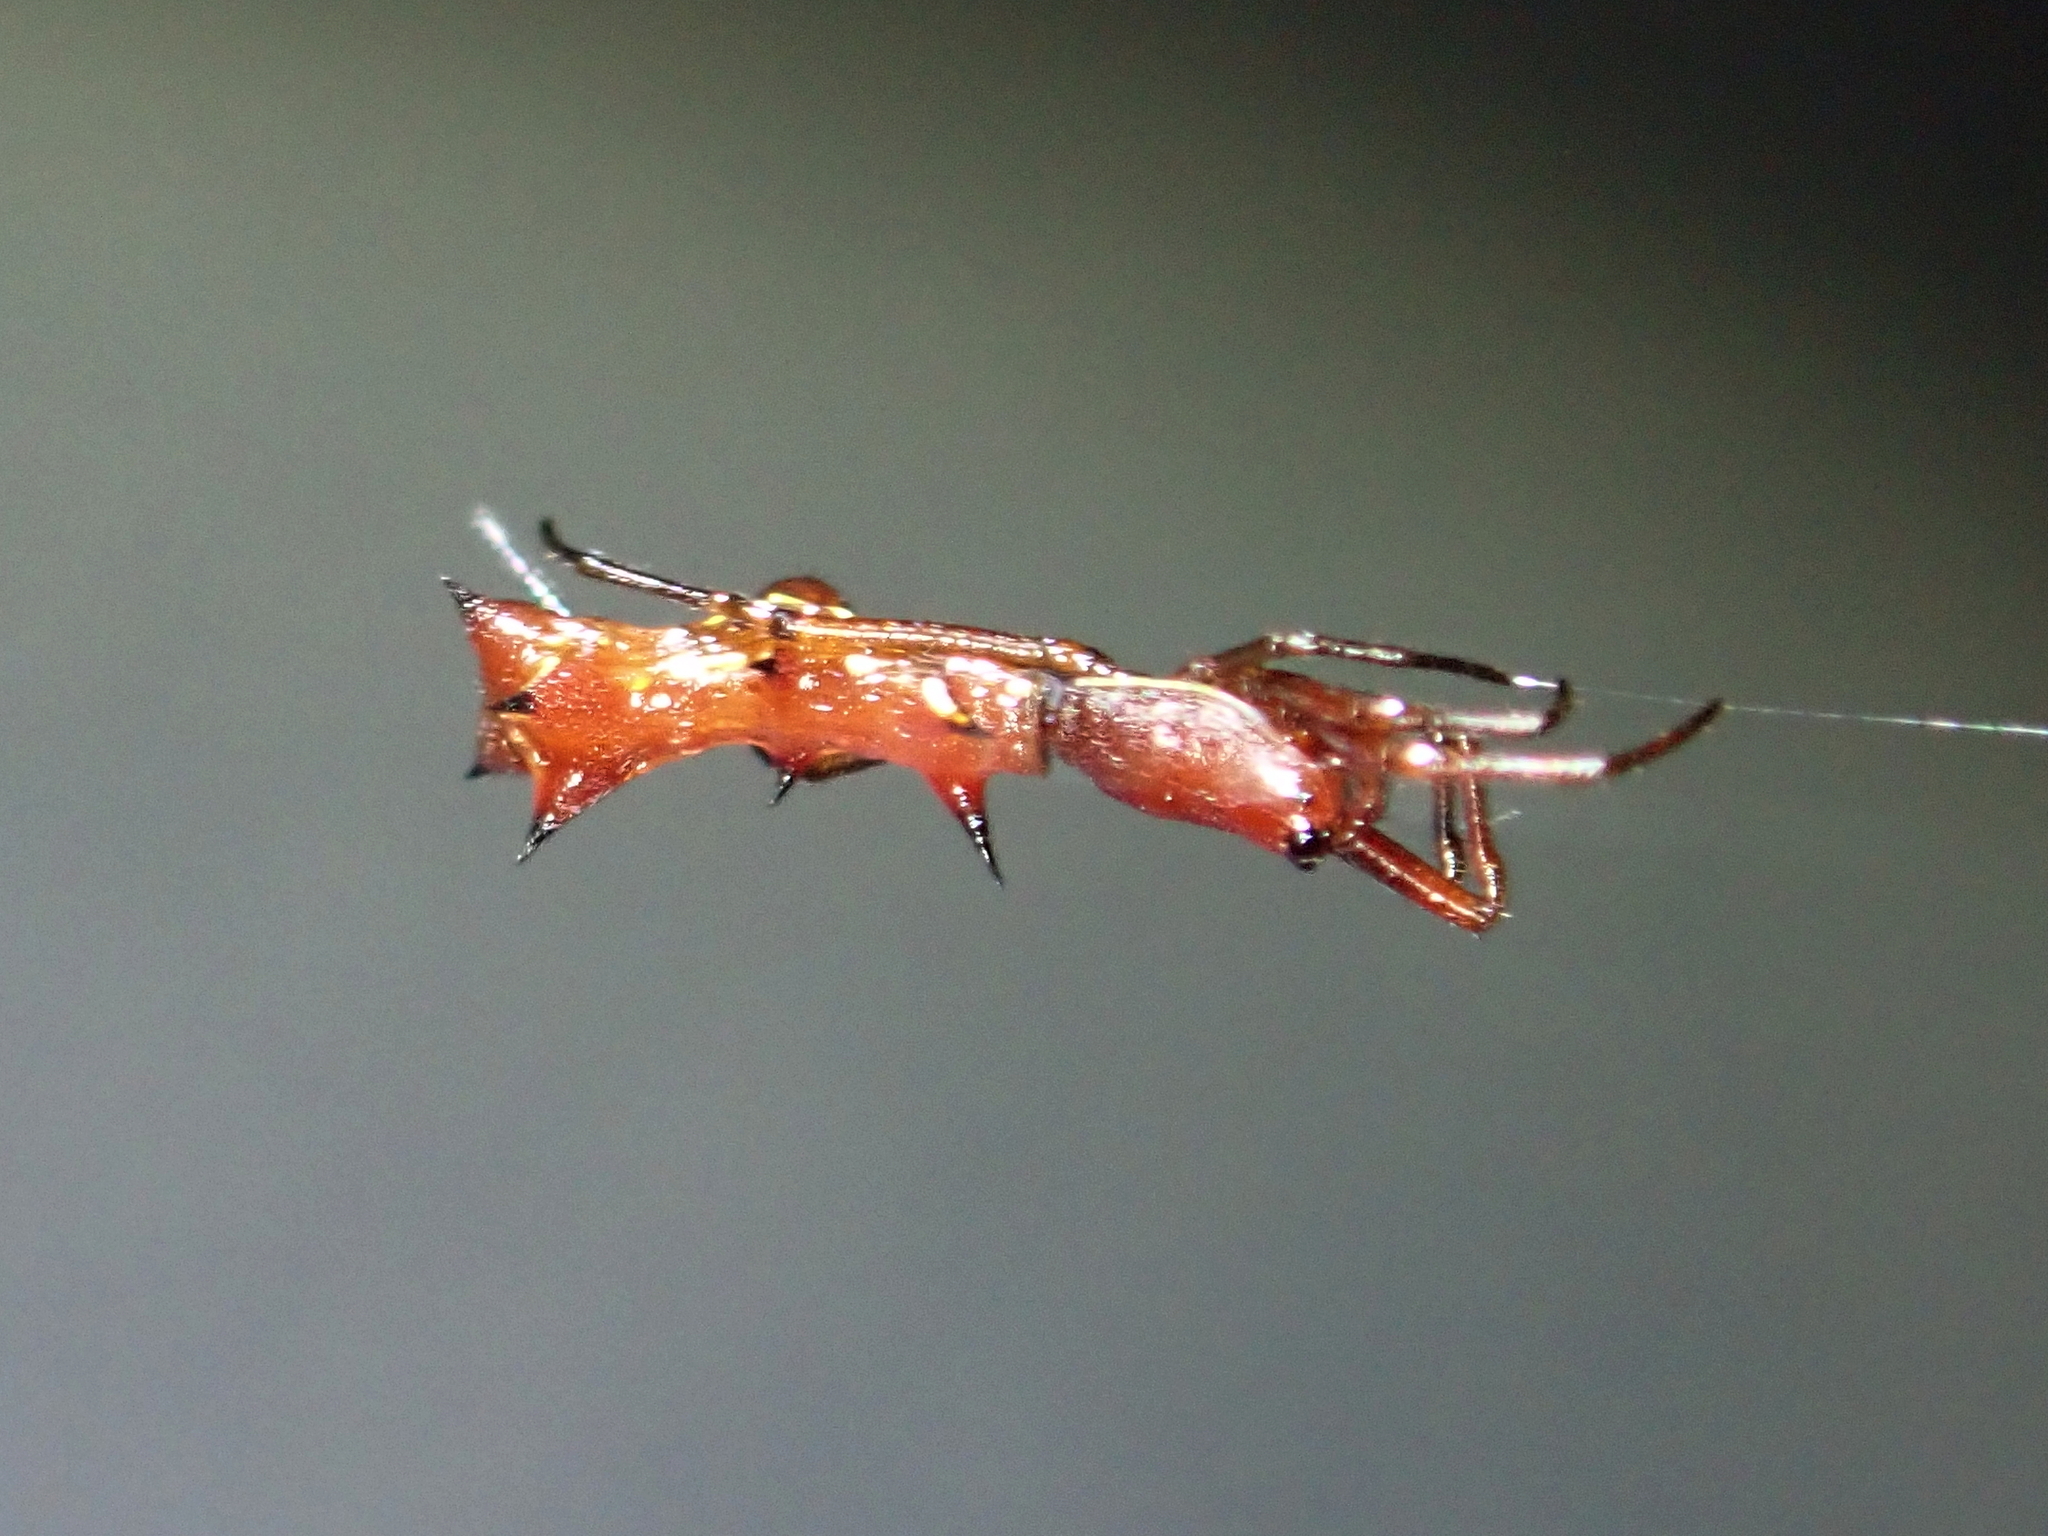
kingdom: Animalia
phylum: Arthropoda
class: Arachnida
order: Araneae
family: Araneidae
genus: Micrathena
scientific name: Micrathena swainsoni
